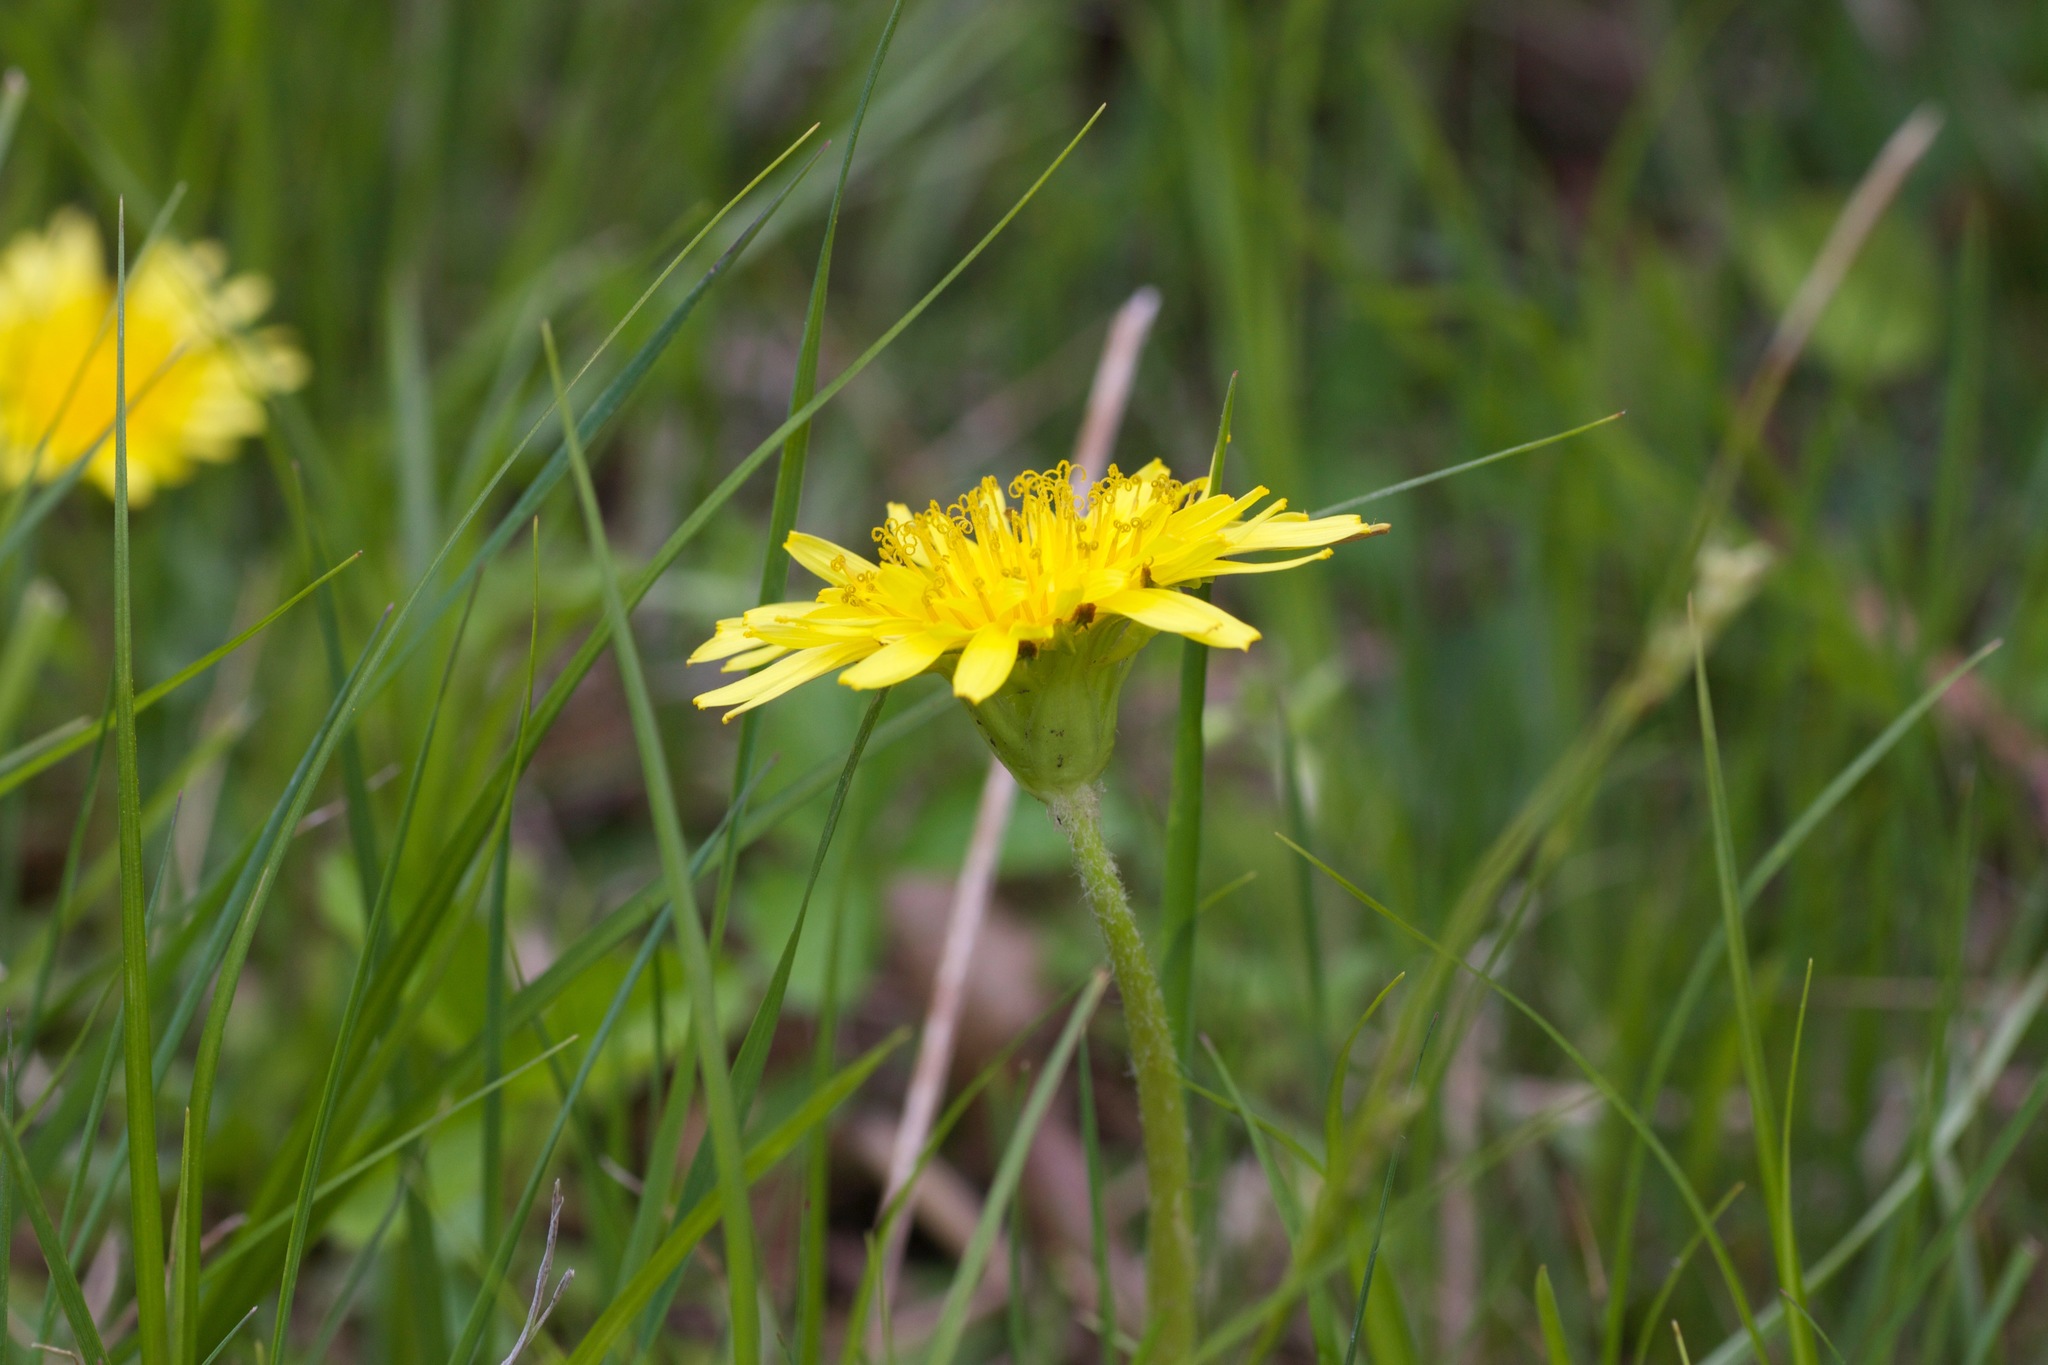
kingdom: Plantae
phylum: Tracheophyta
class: Magnoliopsida
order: Asterales
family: Asteraceae
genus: Taraxacum
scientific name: Taraxacum platycarpum
